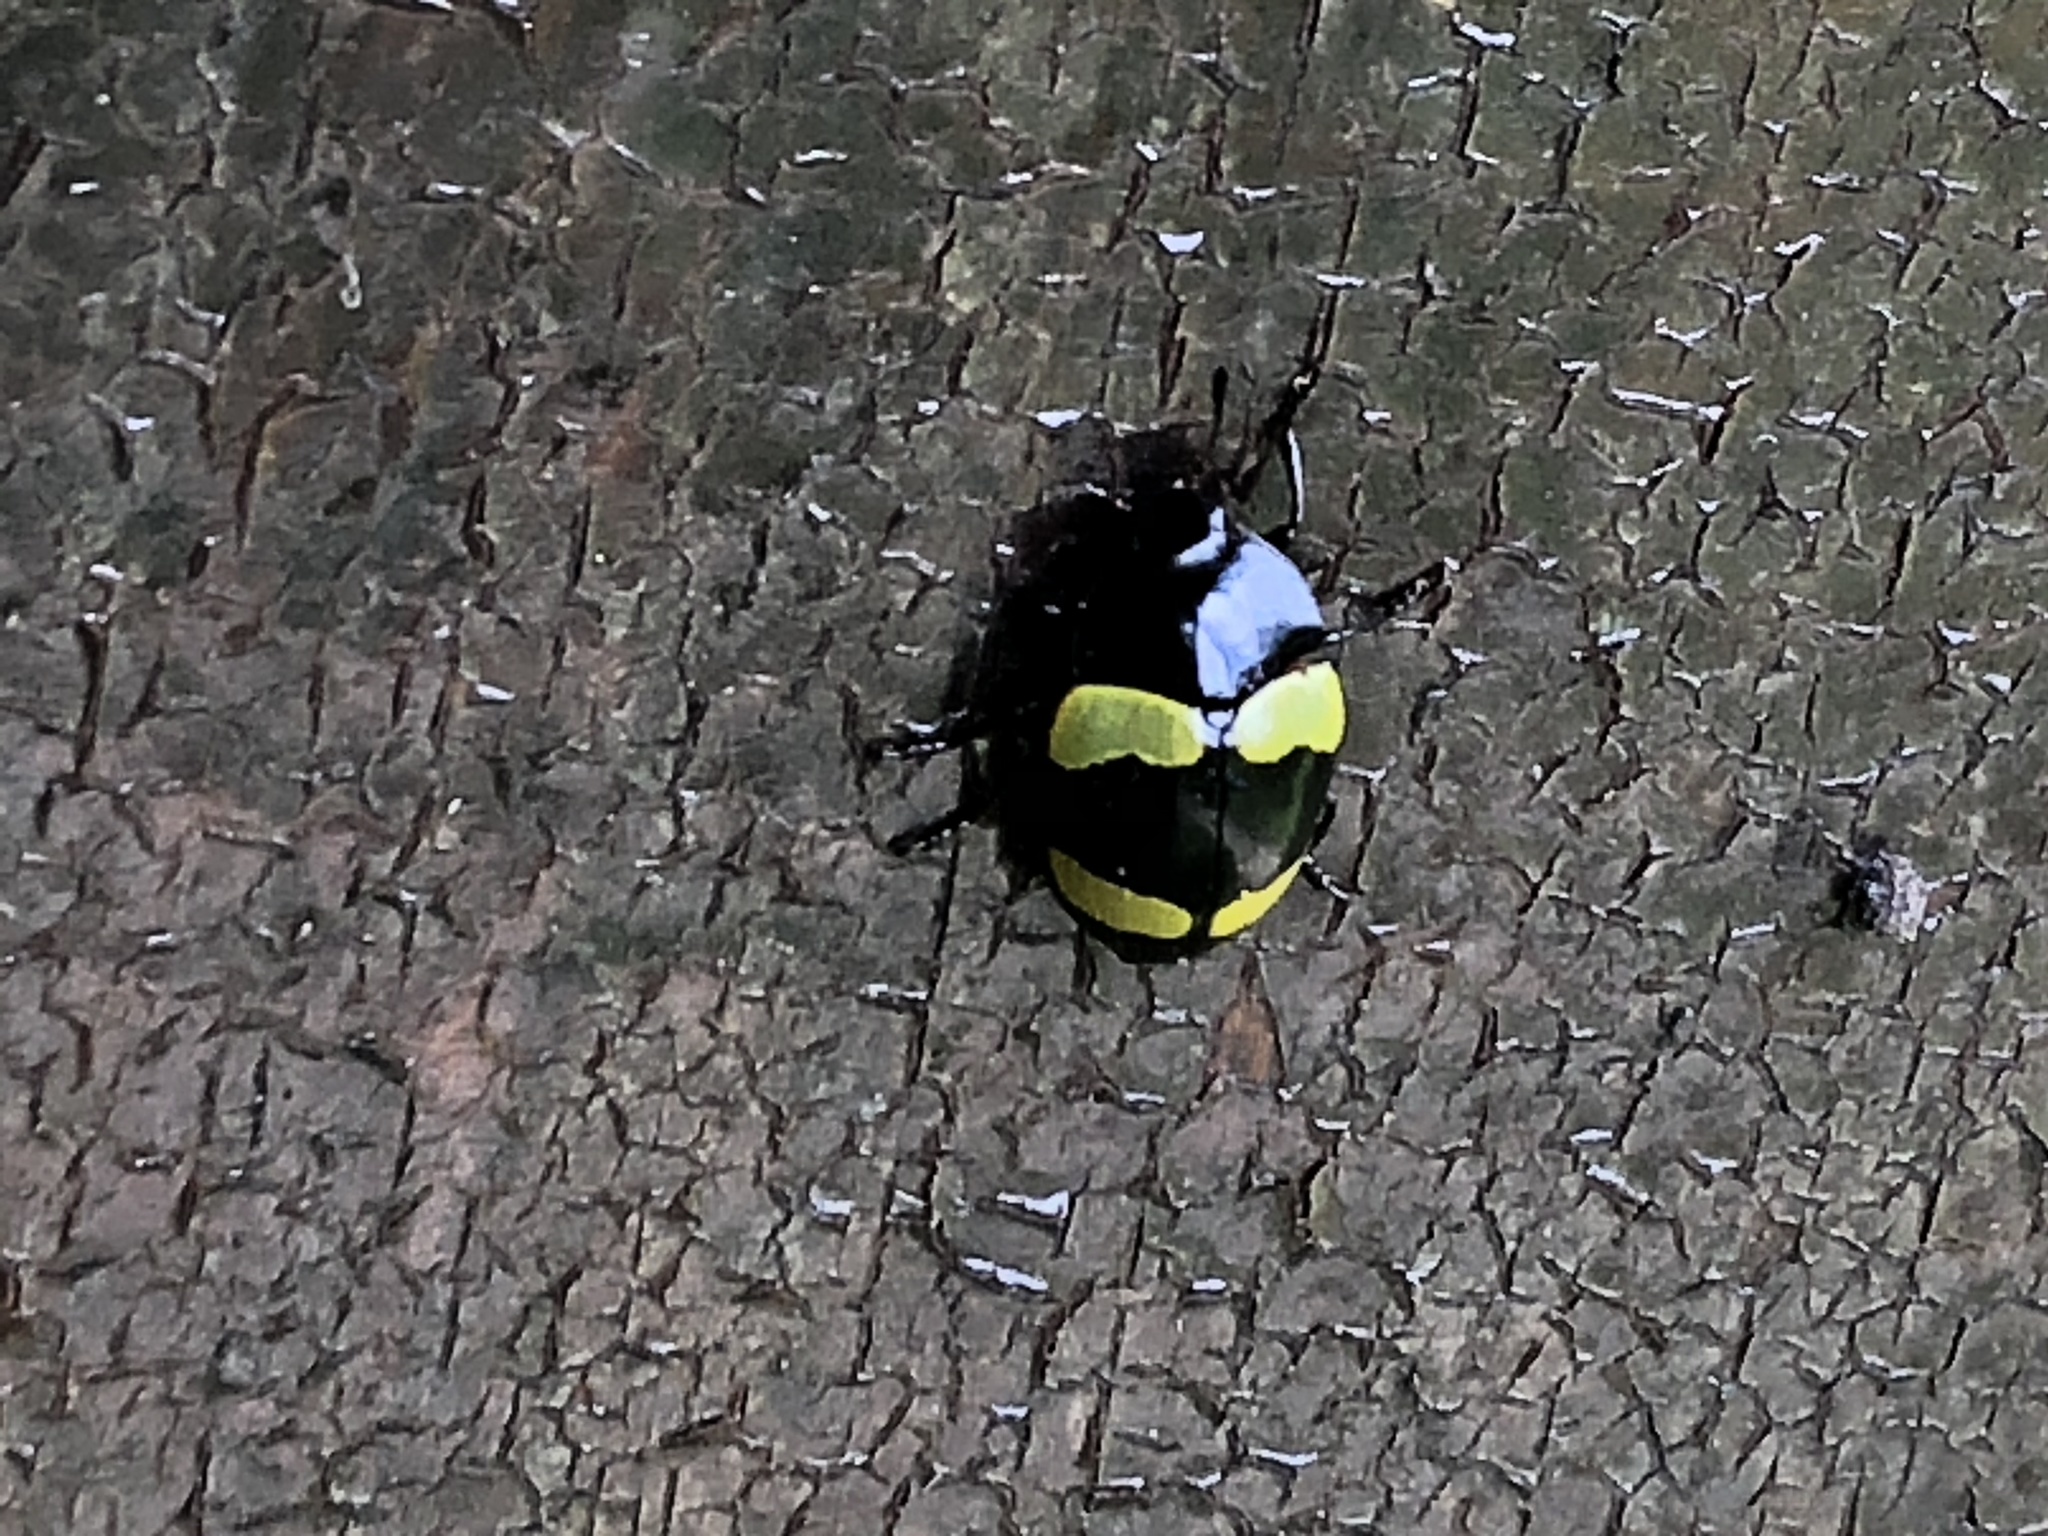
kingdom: Animalia
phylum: Arthropoda
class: Insecta
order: Coleoptera
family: Erotylidae
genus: Iphiclus
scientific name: Iphiclus
